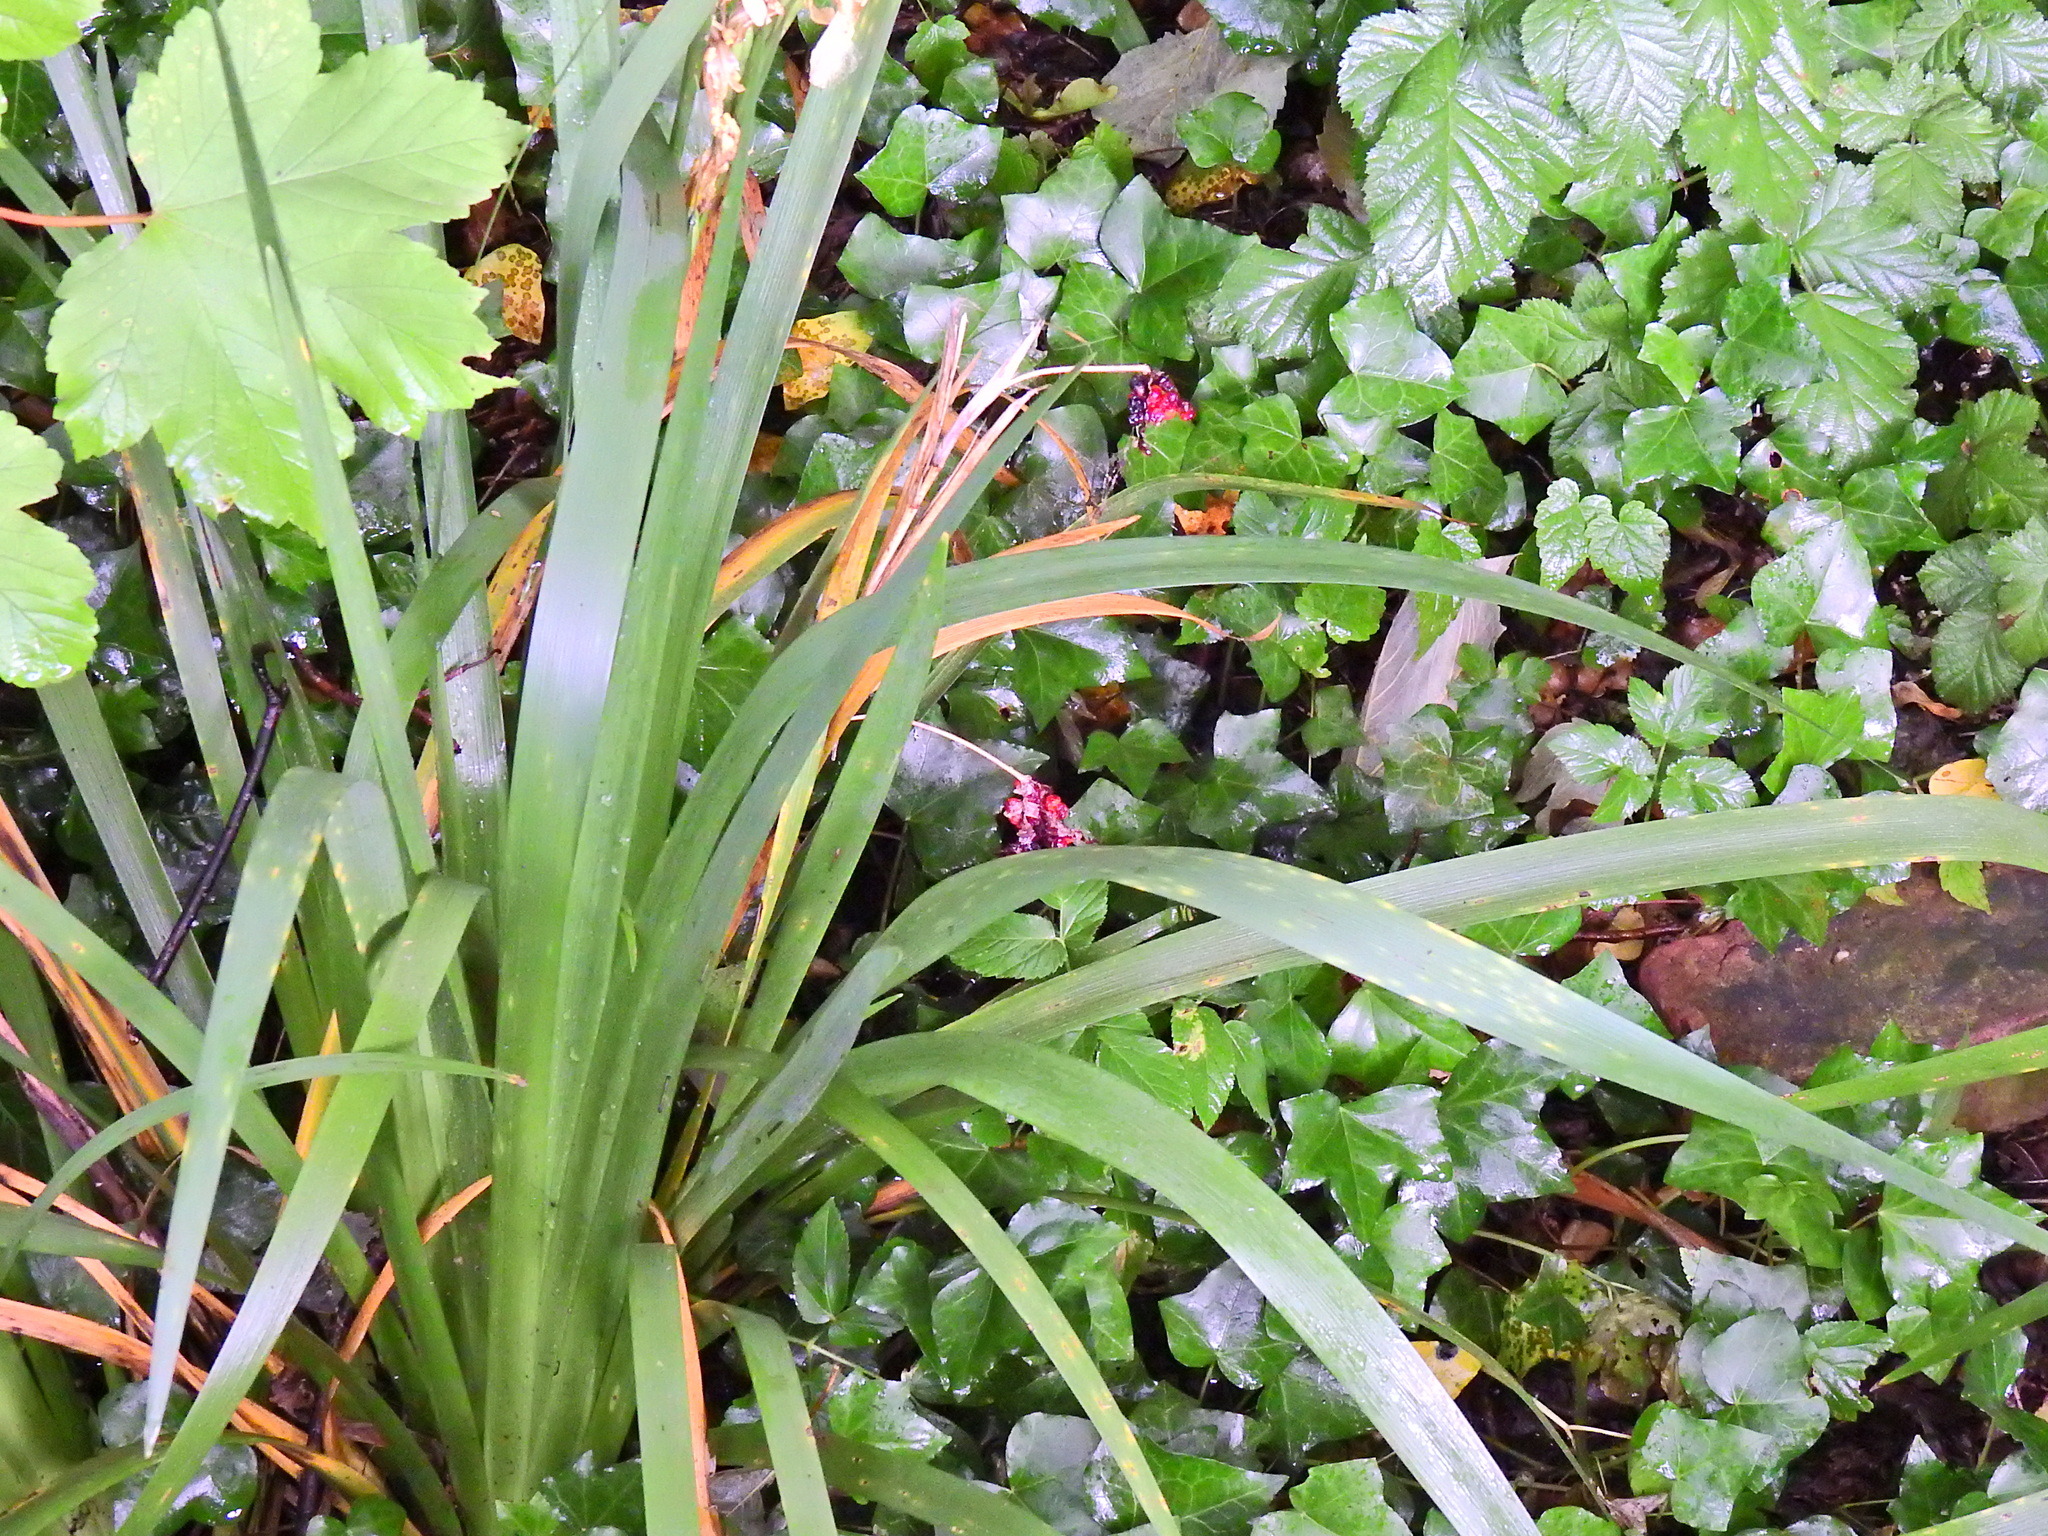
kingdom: Plantae
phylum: Tracheophyta
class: Liliopsida
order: Asparagales
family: Iridaceae
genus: Iris
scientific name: Iris foetidissima
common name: Stinking iris
